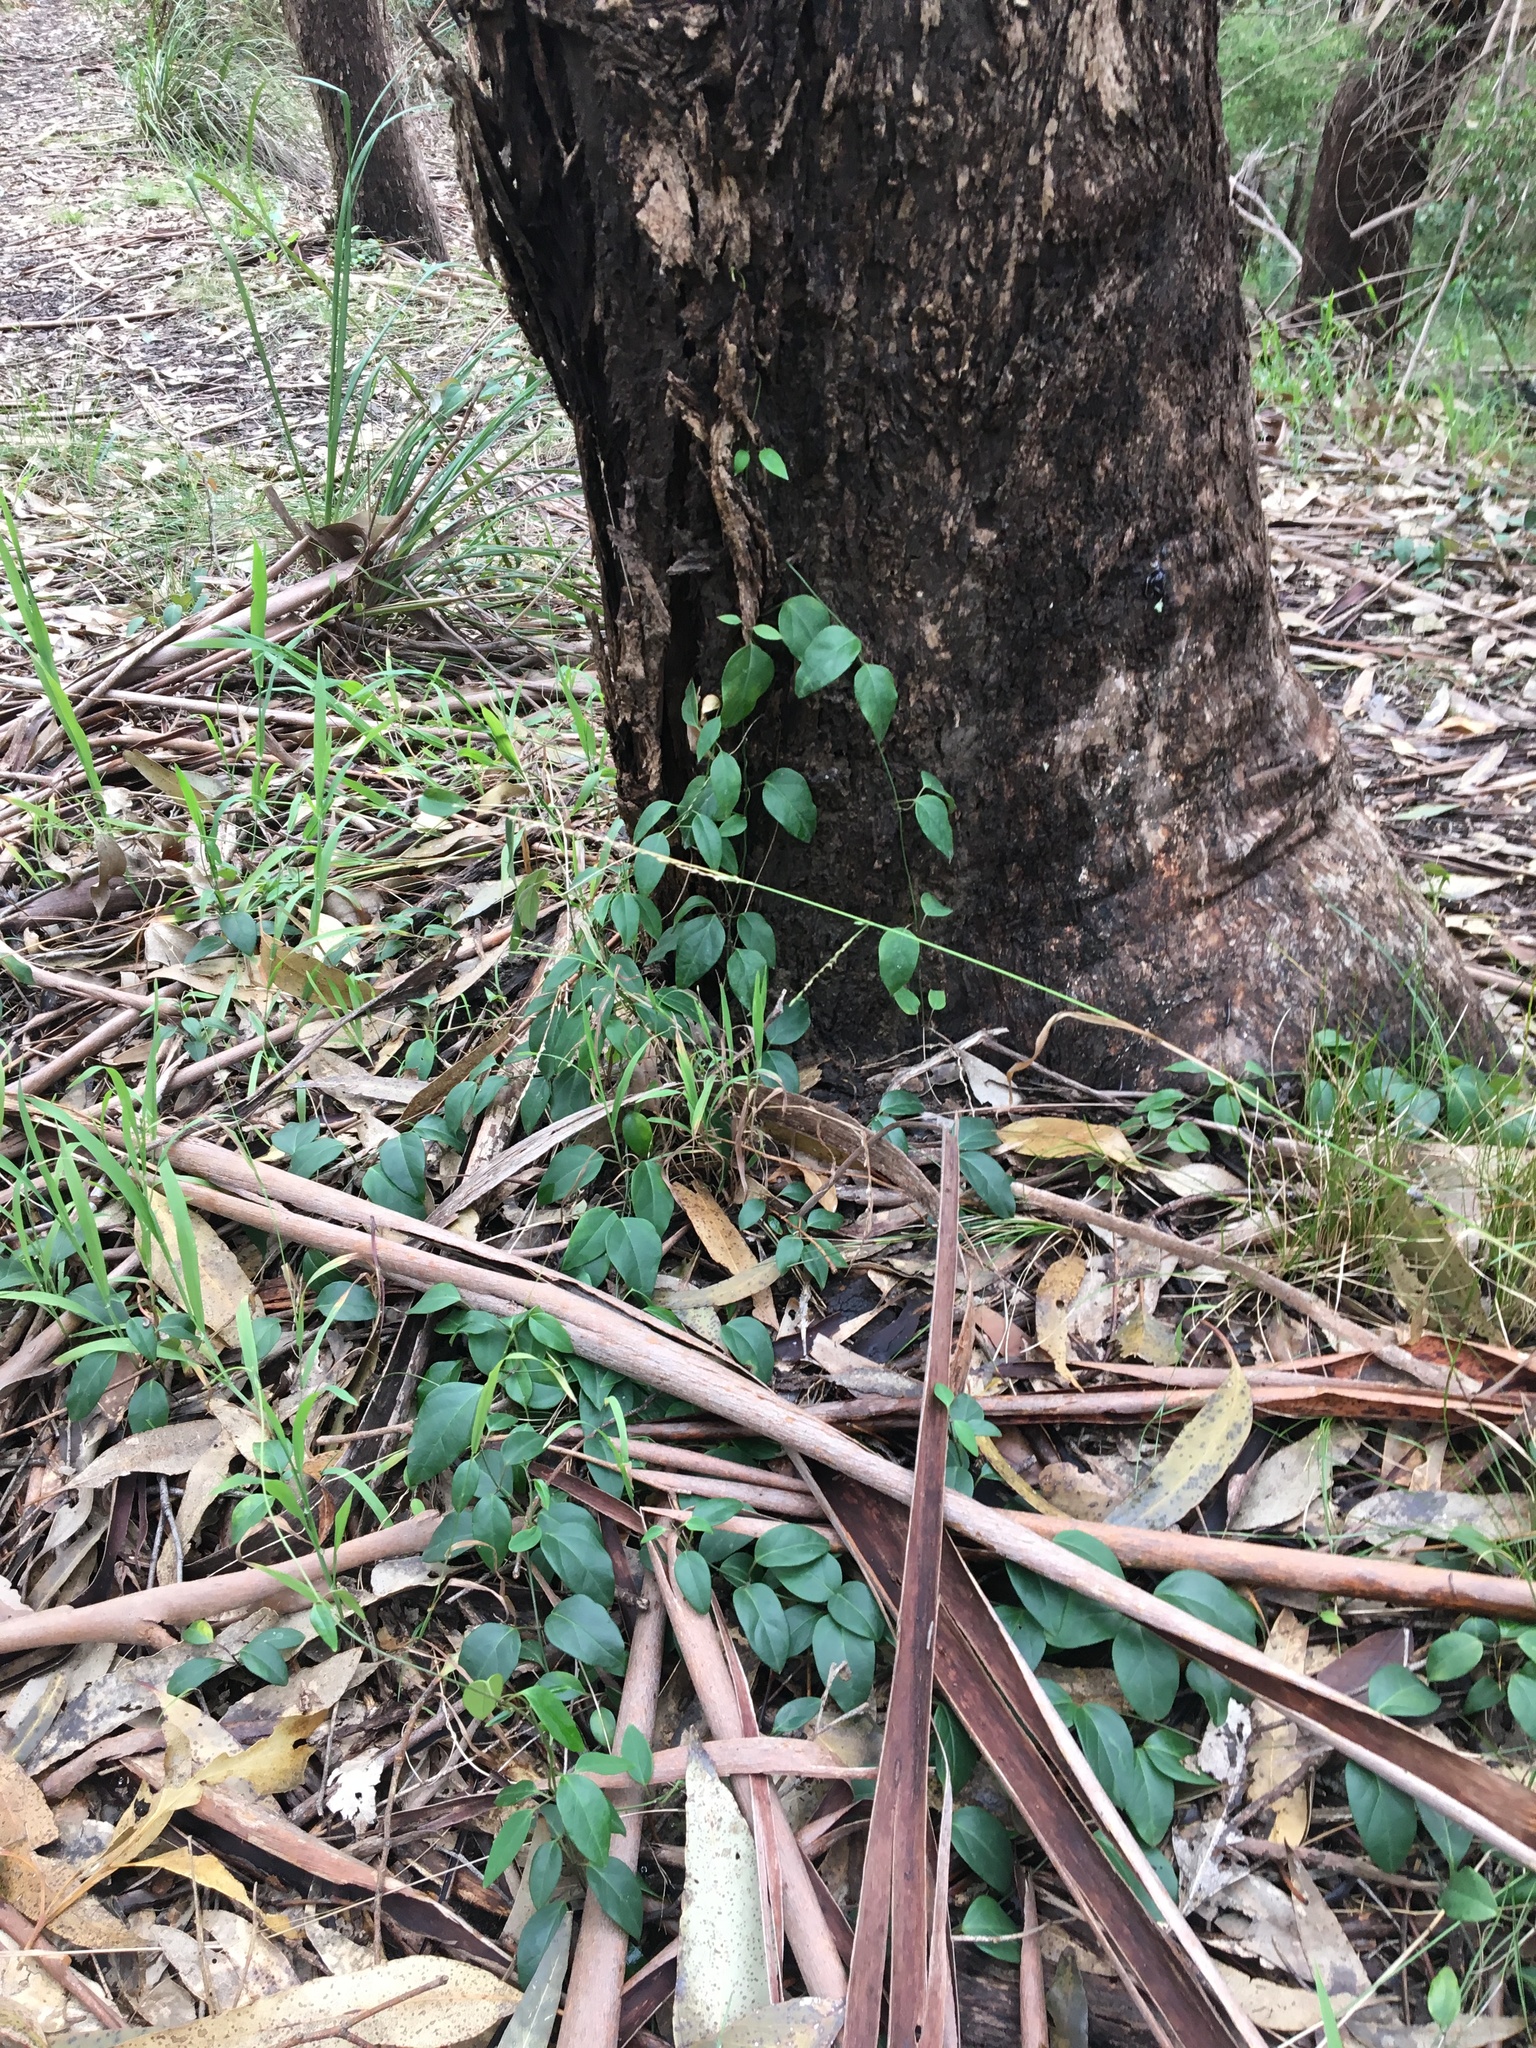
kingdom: Plantae
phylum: Tracheophyta
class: Magnoliopsida
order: Gentianales
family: Apocynaceae
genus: Vincetoxicum
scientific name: Vincetoxicum barbatum
